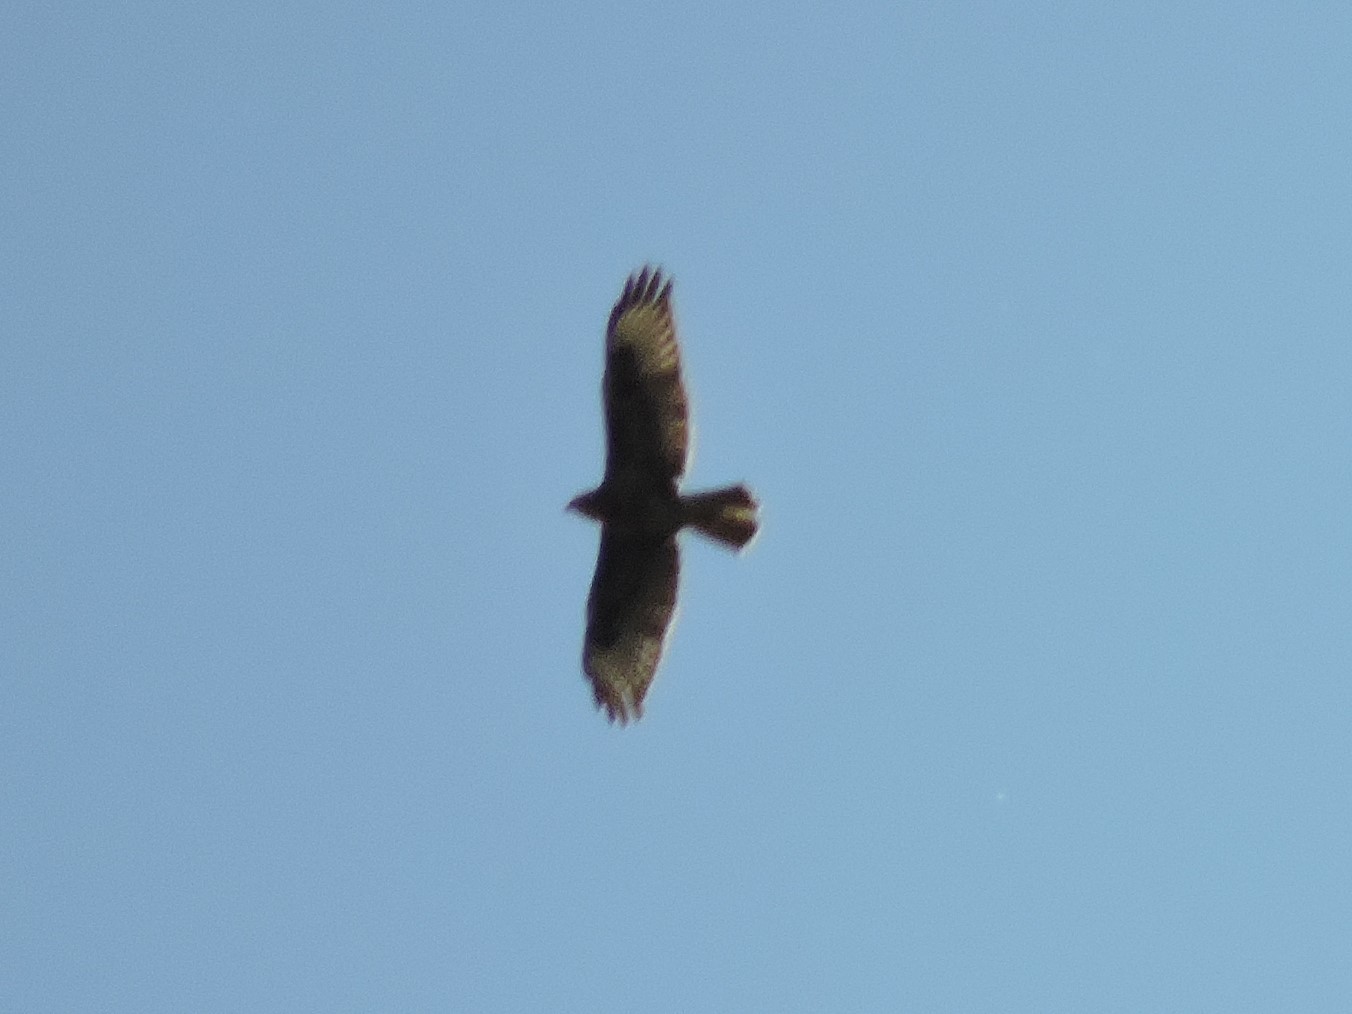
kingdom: Animalia
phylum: Chordata
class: Aves
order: Accipitriformes
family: Accipitridae
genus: Pernis
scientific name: Pernis apivorus
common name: European honey buzzard
